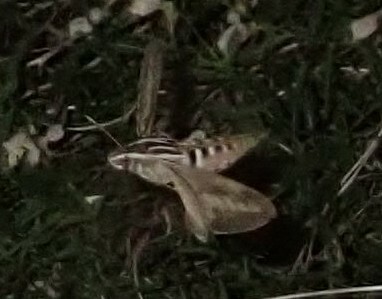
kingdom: Animalia
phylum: Arthropoda
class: Insecta
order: Lepidoptera
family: Sphingidae
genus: Hyles
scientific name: Hyles lineata
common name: White-lined sphinx
